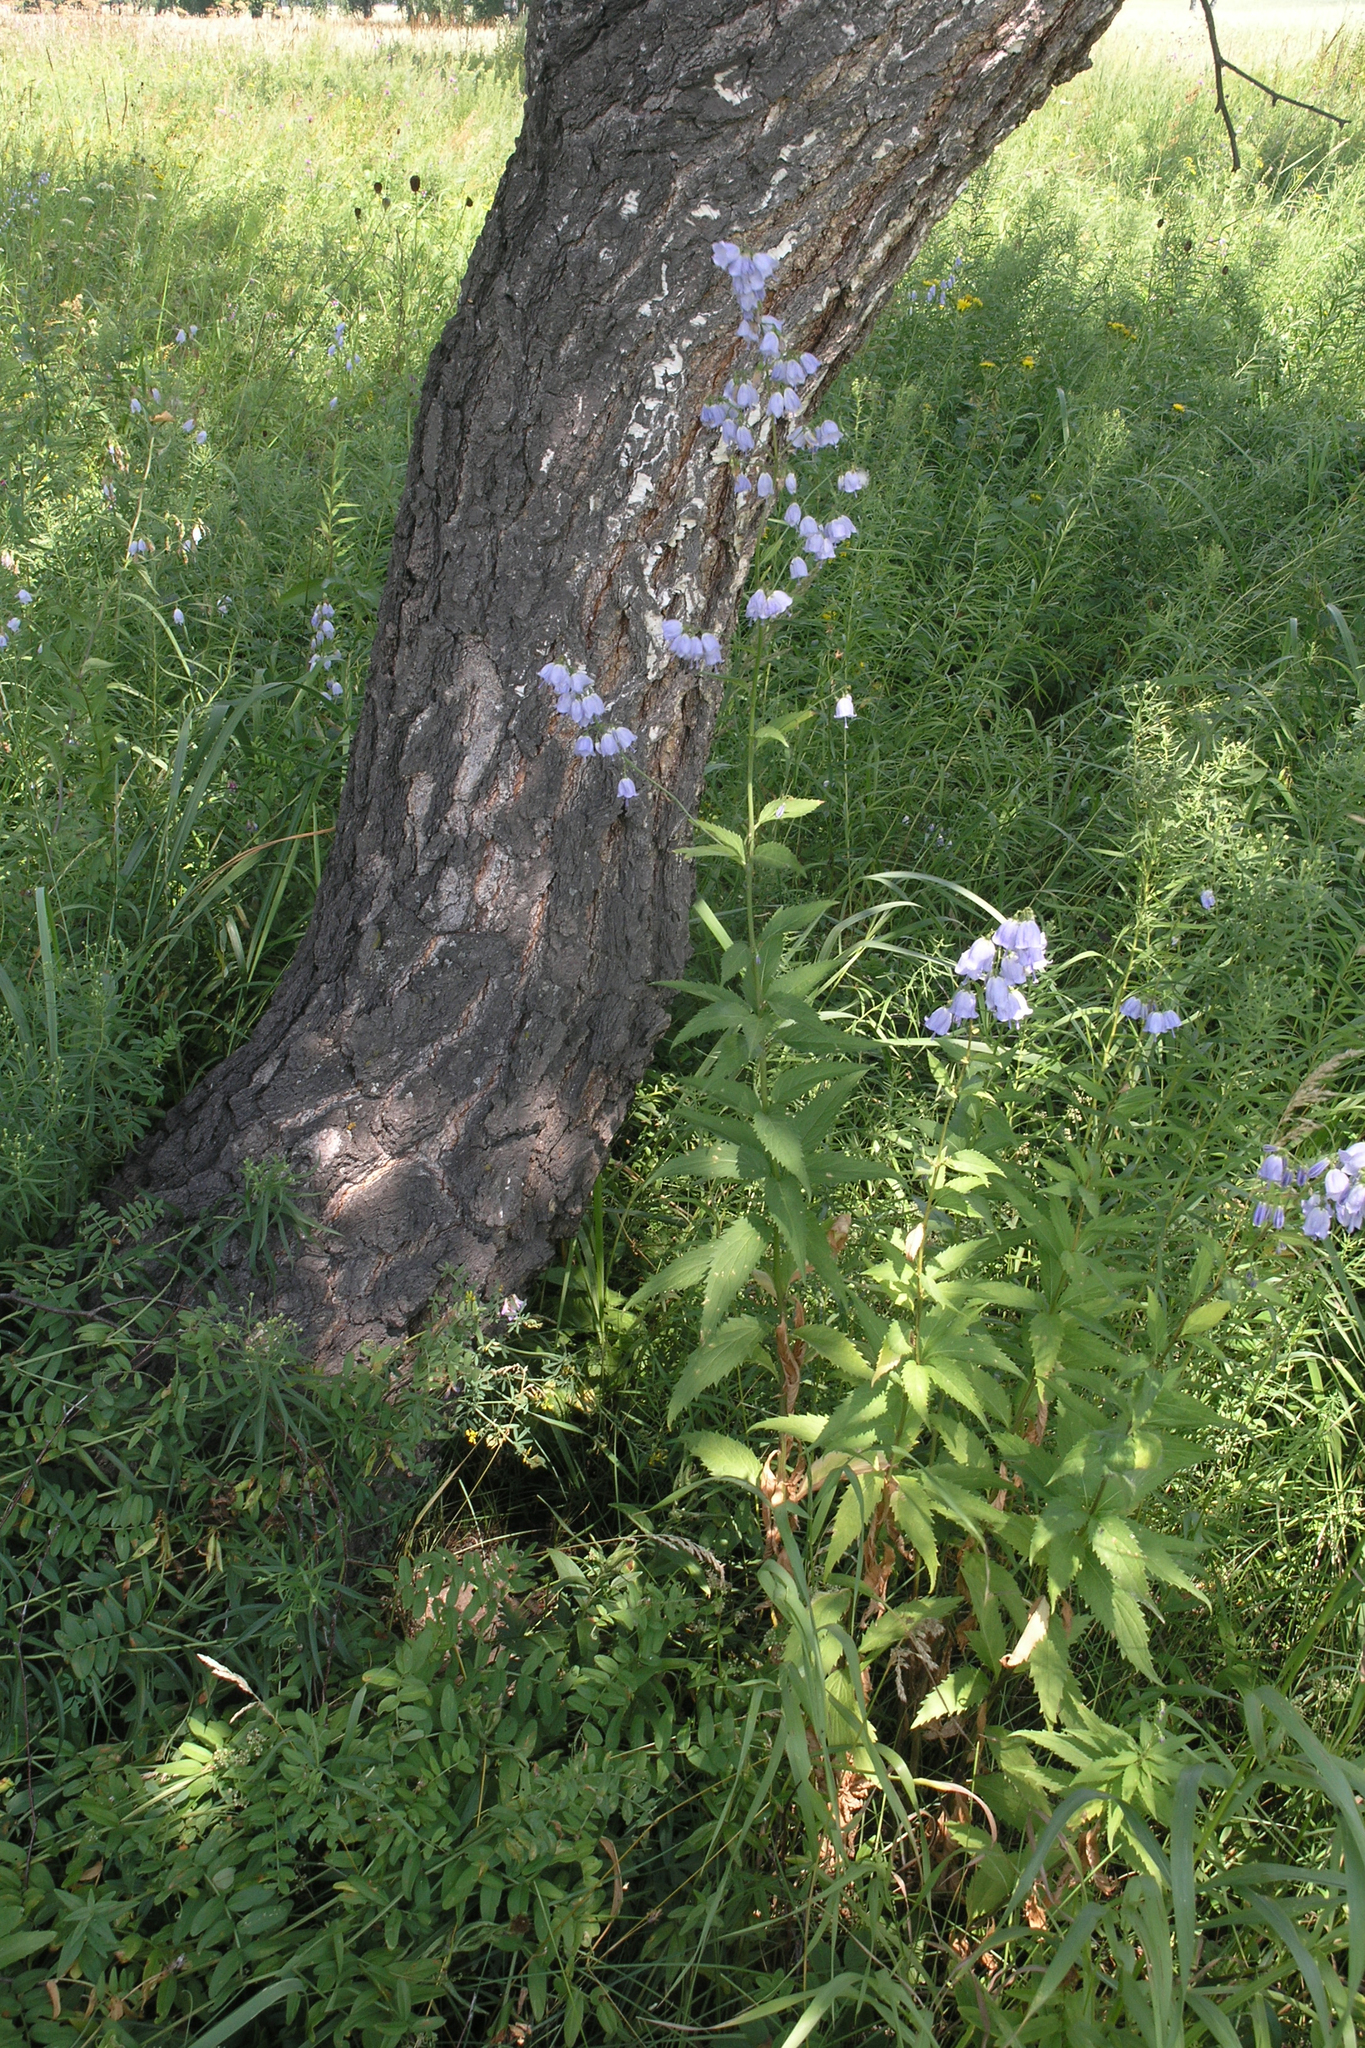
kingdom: Plantae
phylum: Tracheophyta
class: Magnoliopsida
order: Asterales
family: Campanulaceae
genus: Adenophora
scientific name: Adenophora liliifolia
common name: Lilyleaf ladybells
